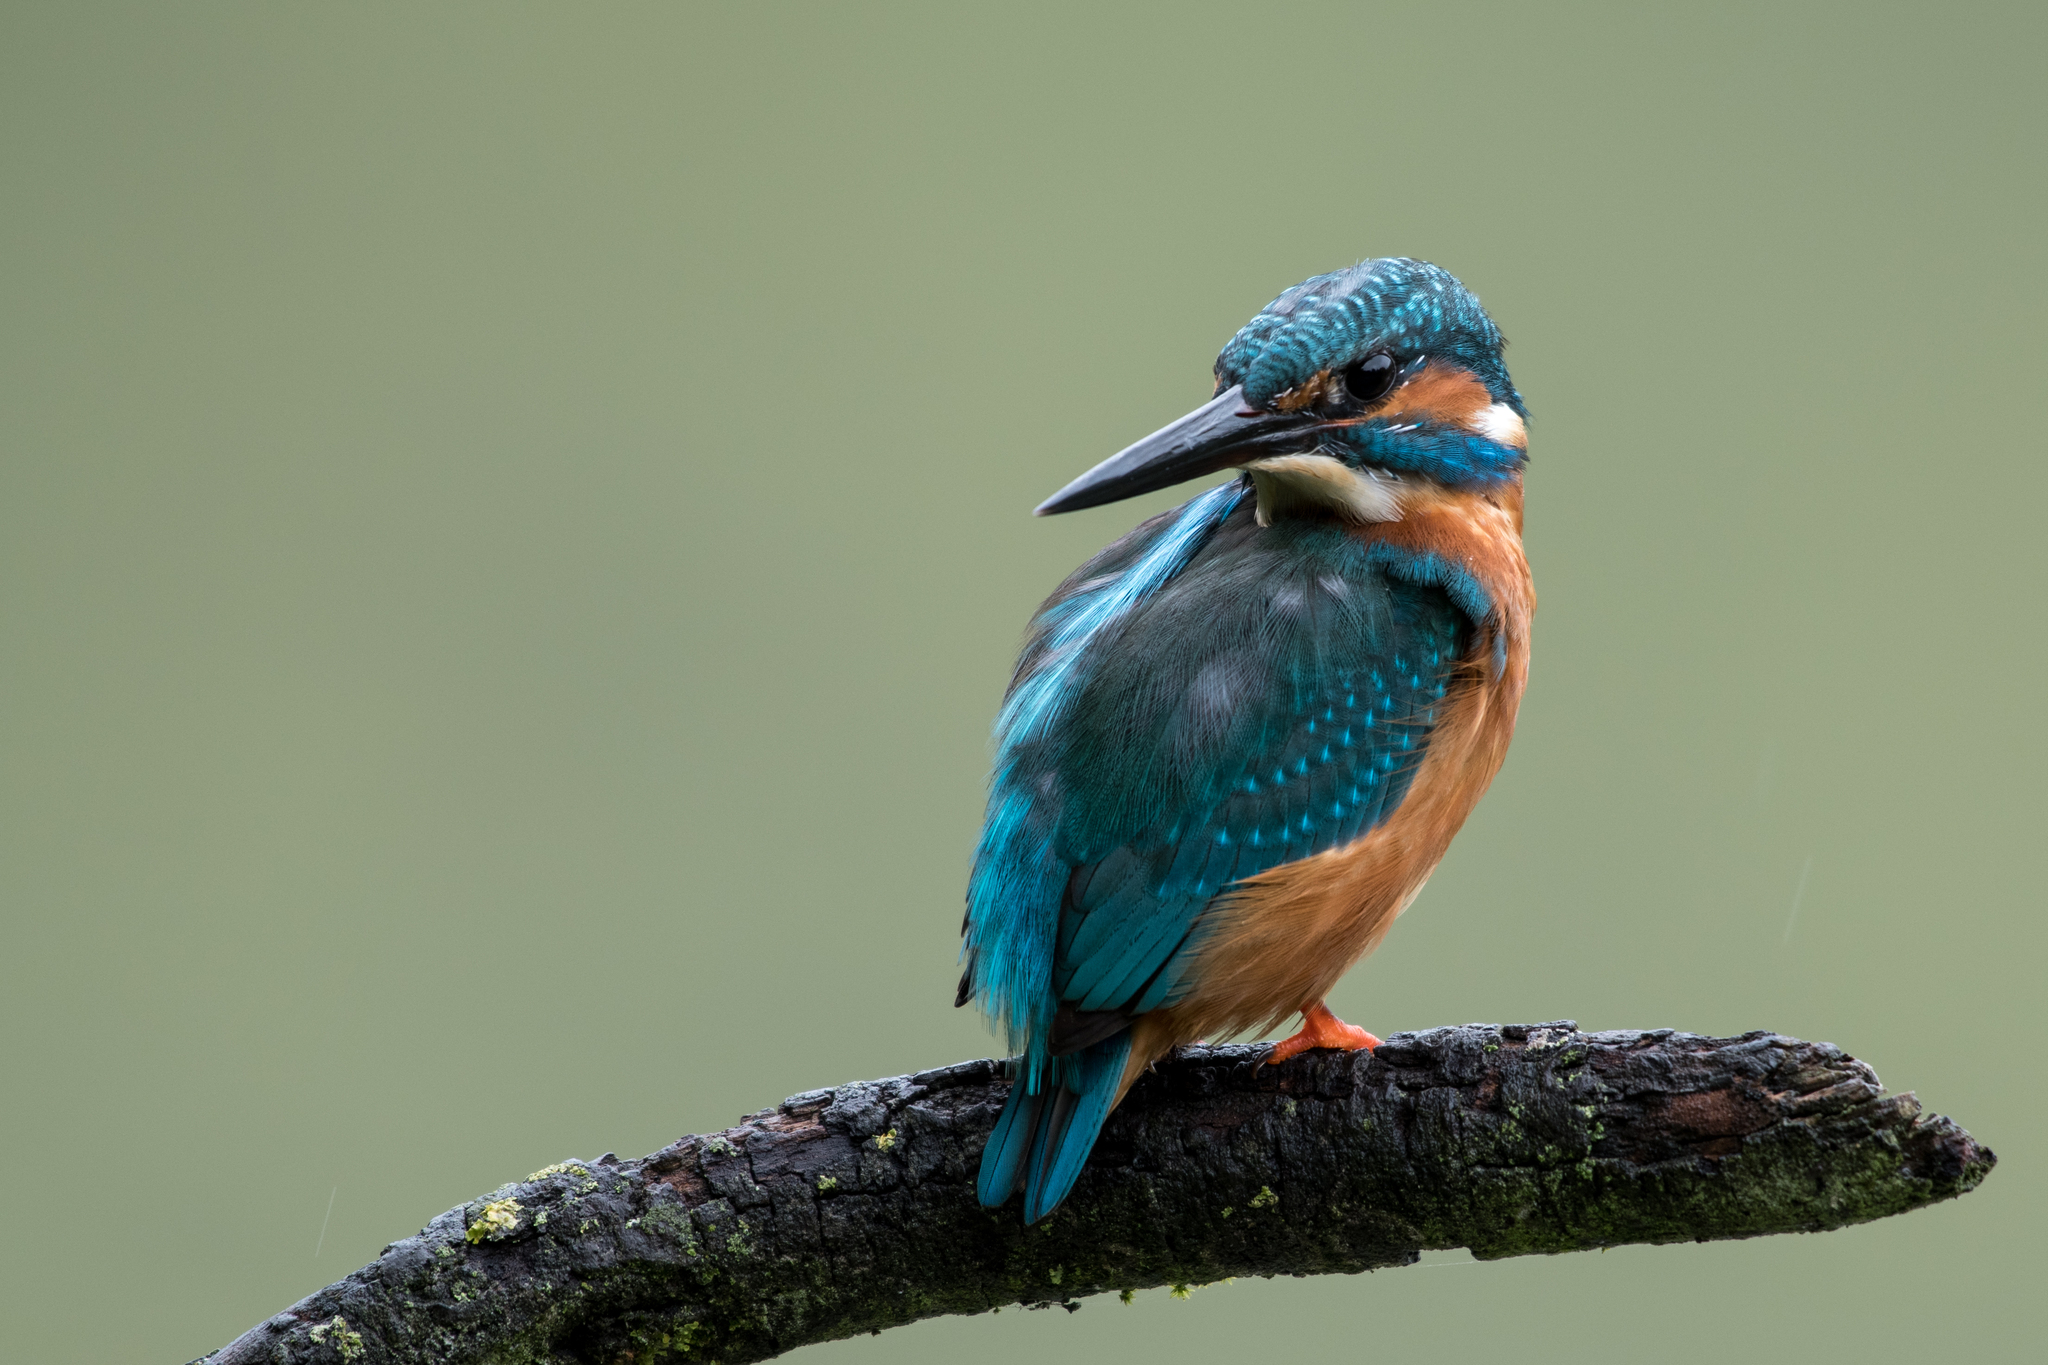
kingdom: Animalia
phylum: Chordata
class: Aves
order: Coraciiformes
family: Alcedinidae
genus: Alcedo
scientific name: Alcedo atthis
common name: Common kingfisher
